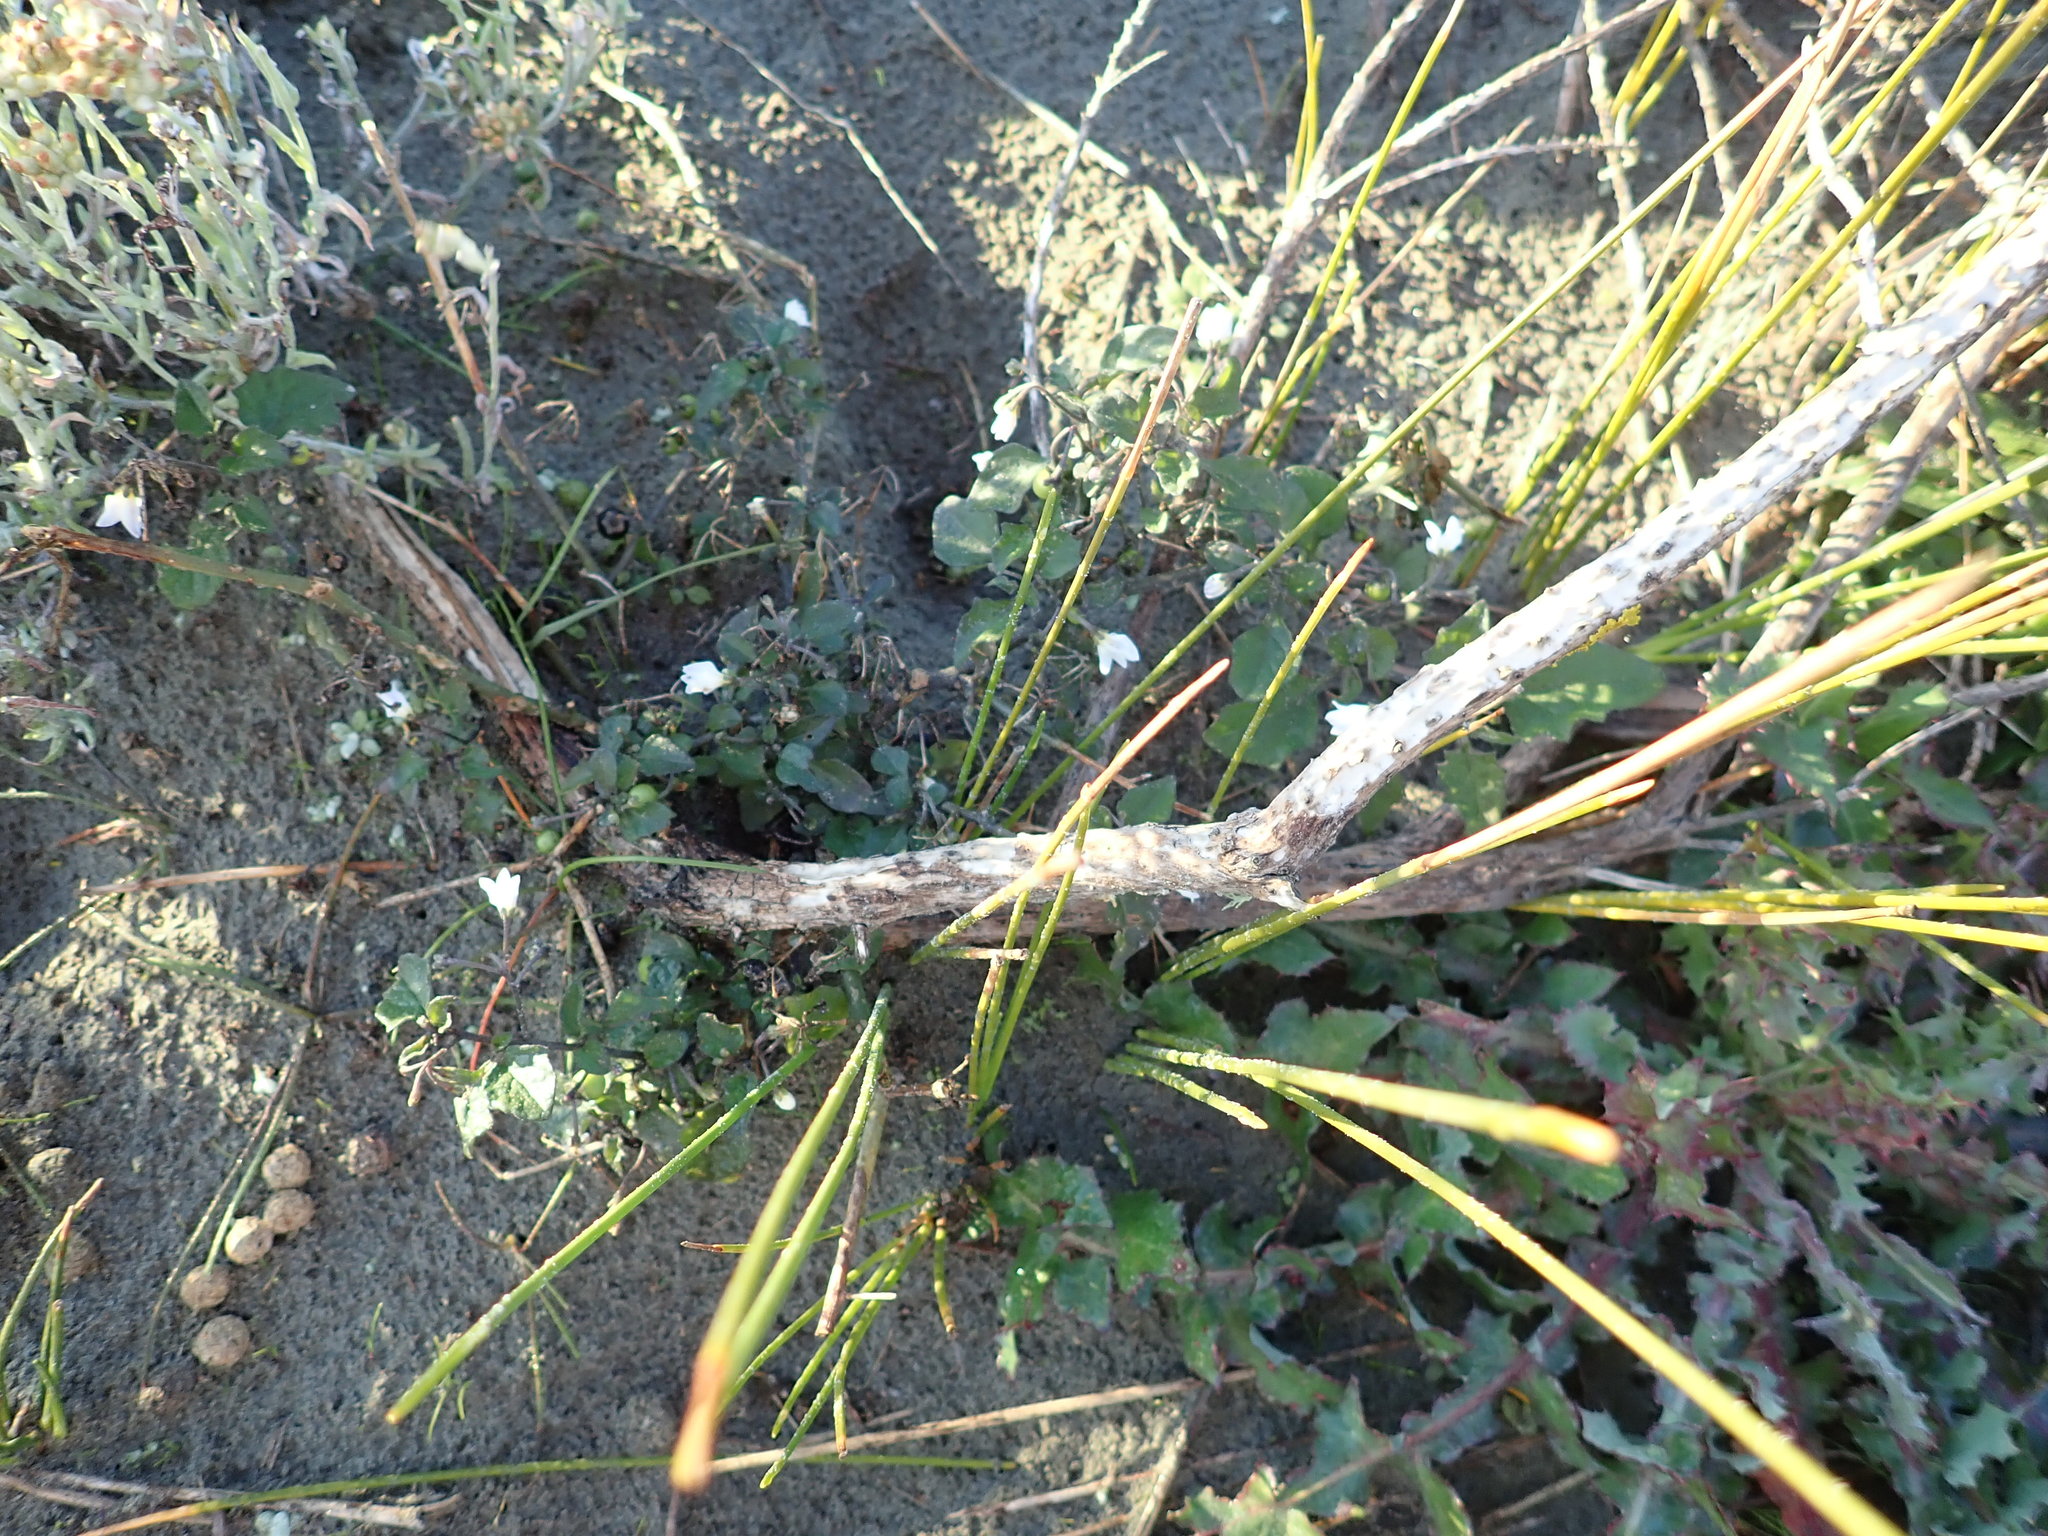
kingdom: Plantae
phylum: Tracheophyta
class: Magnoliopsida
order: Solanales
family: Solanaceae
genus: Solanum
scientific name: Solanum nigrum
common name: Black nightshade
